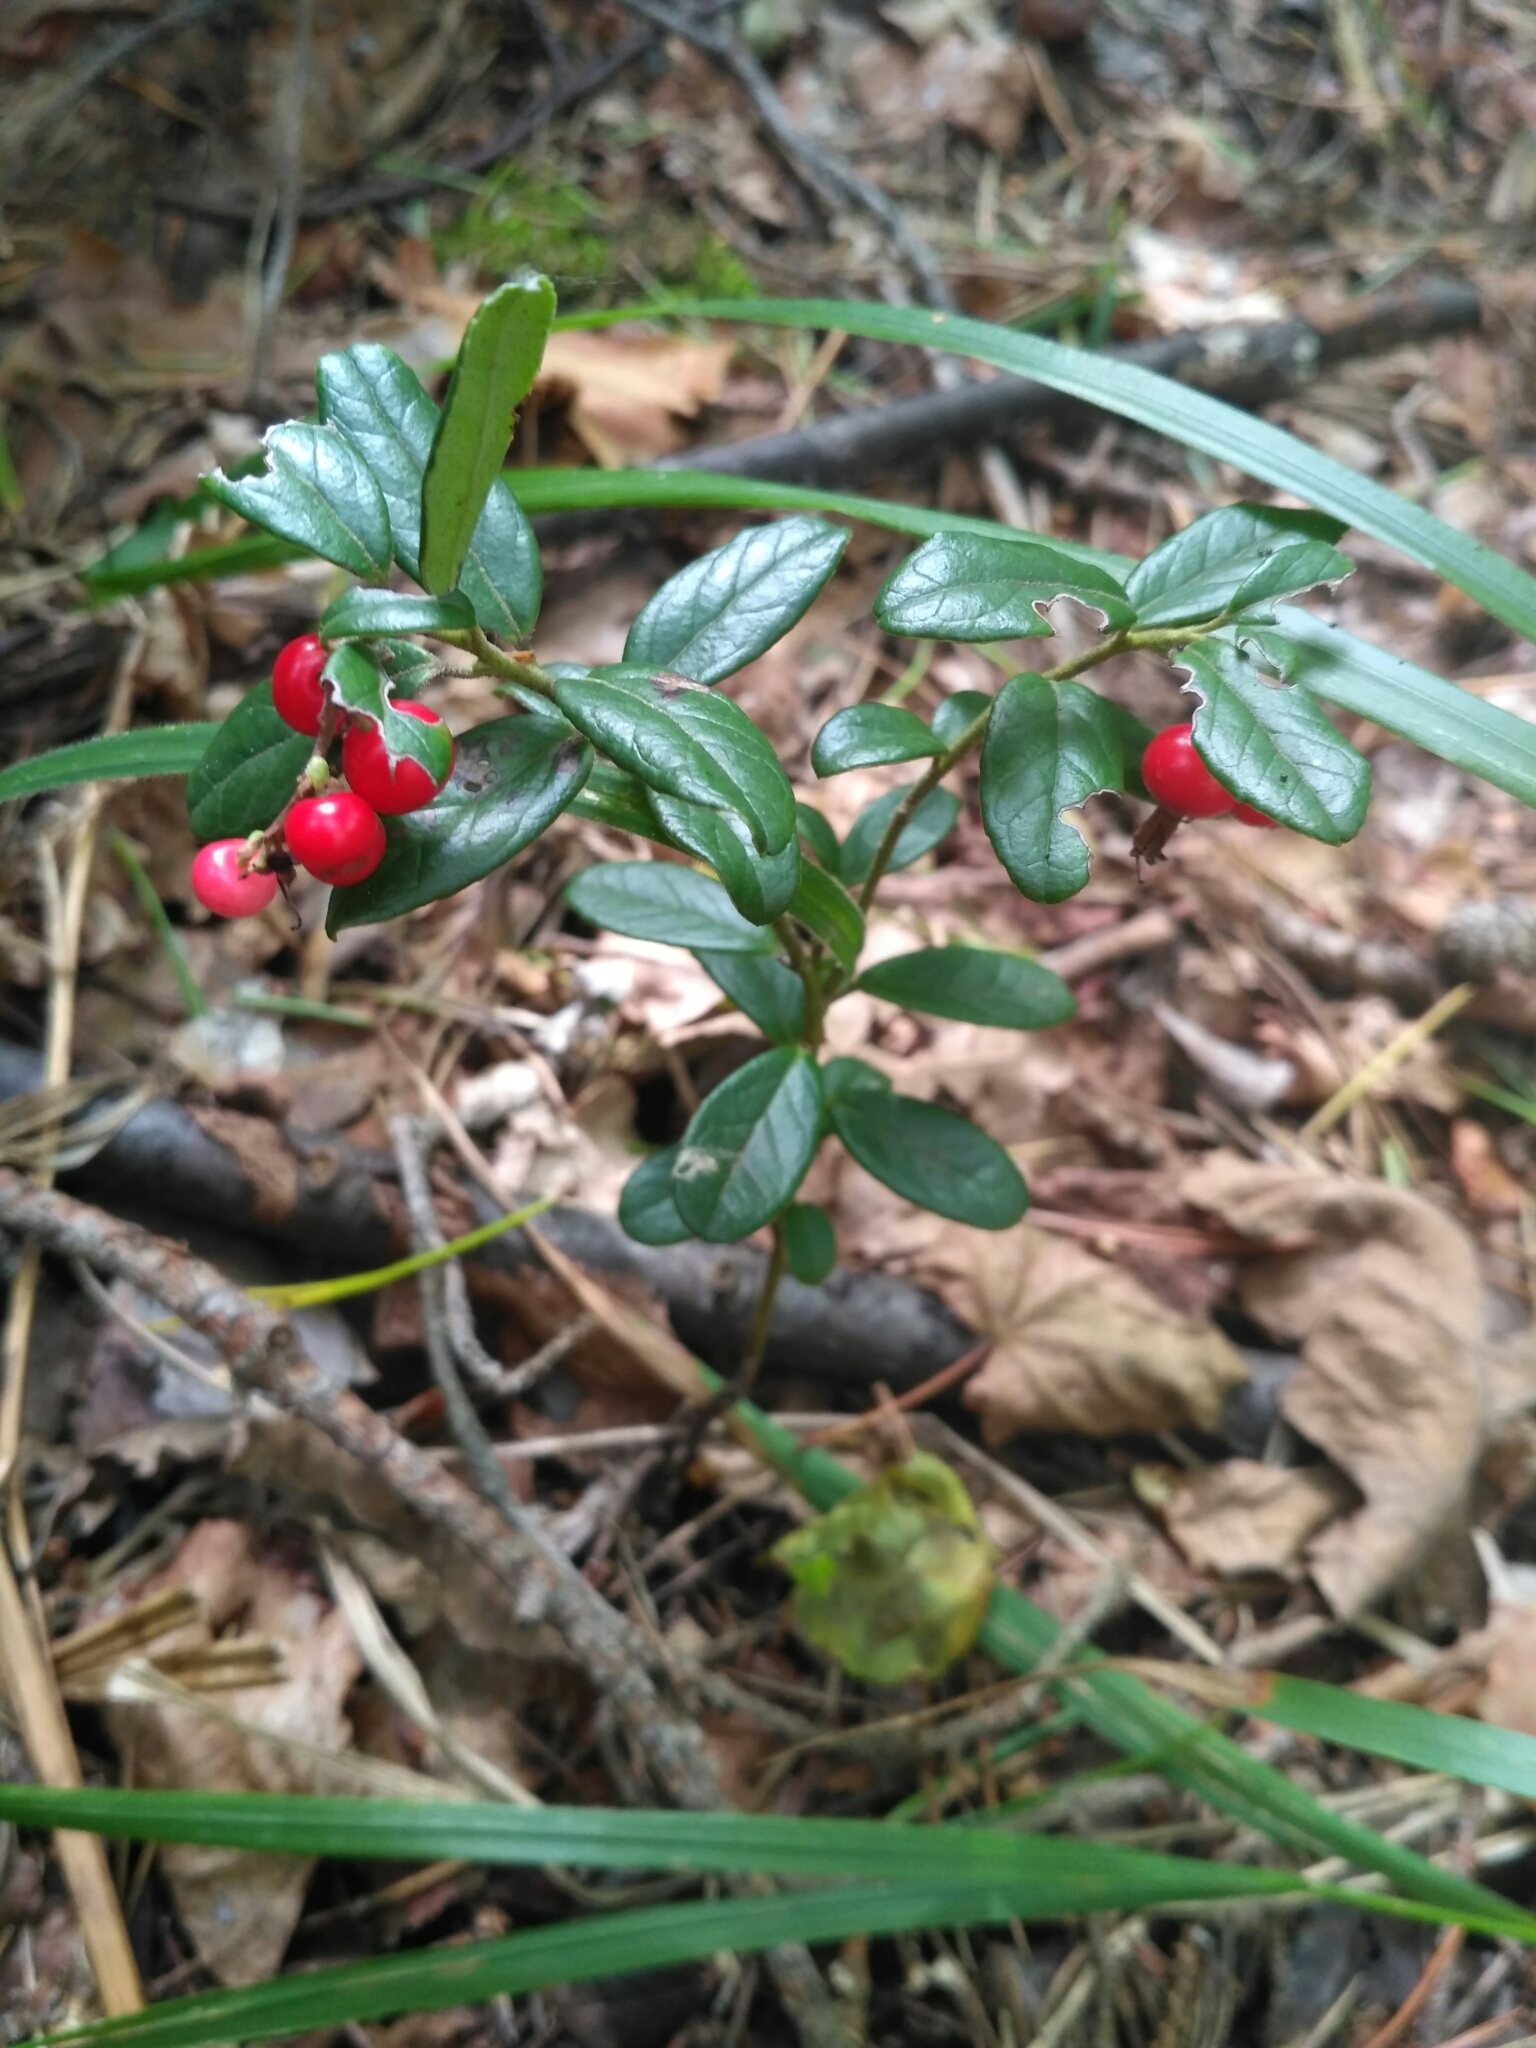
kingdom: Plantae
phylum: Tracheophyta
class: Magnoliopsida
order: Ericales
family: Ericaceae
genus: Vaccinium
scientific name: Vaccinium vitis-idaea
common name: Cowberry
